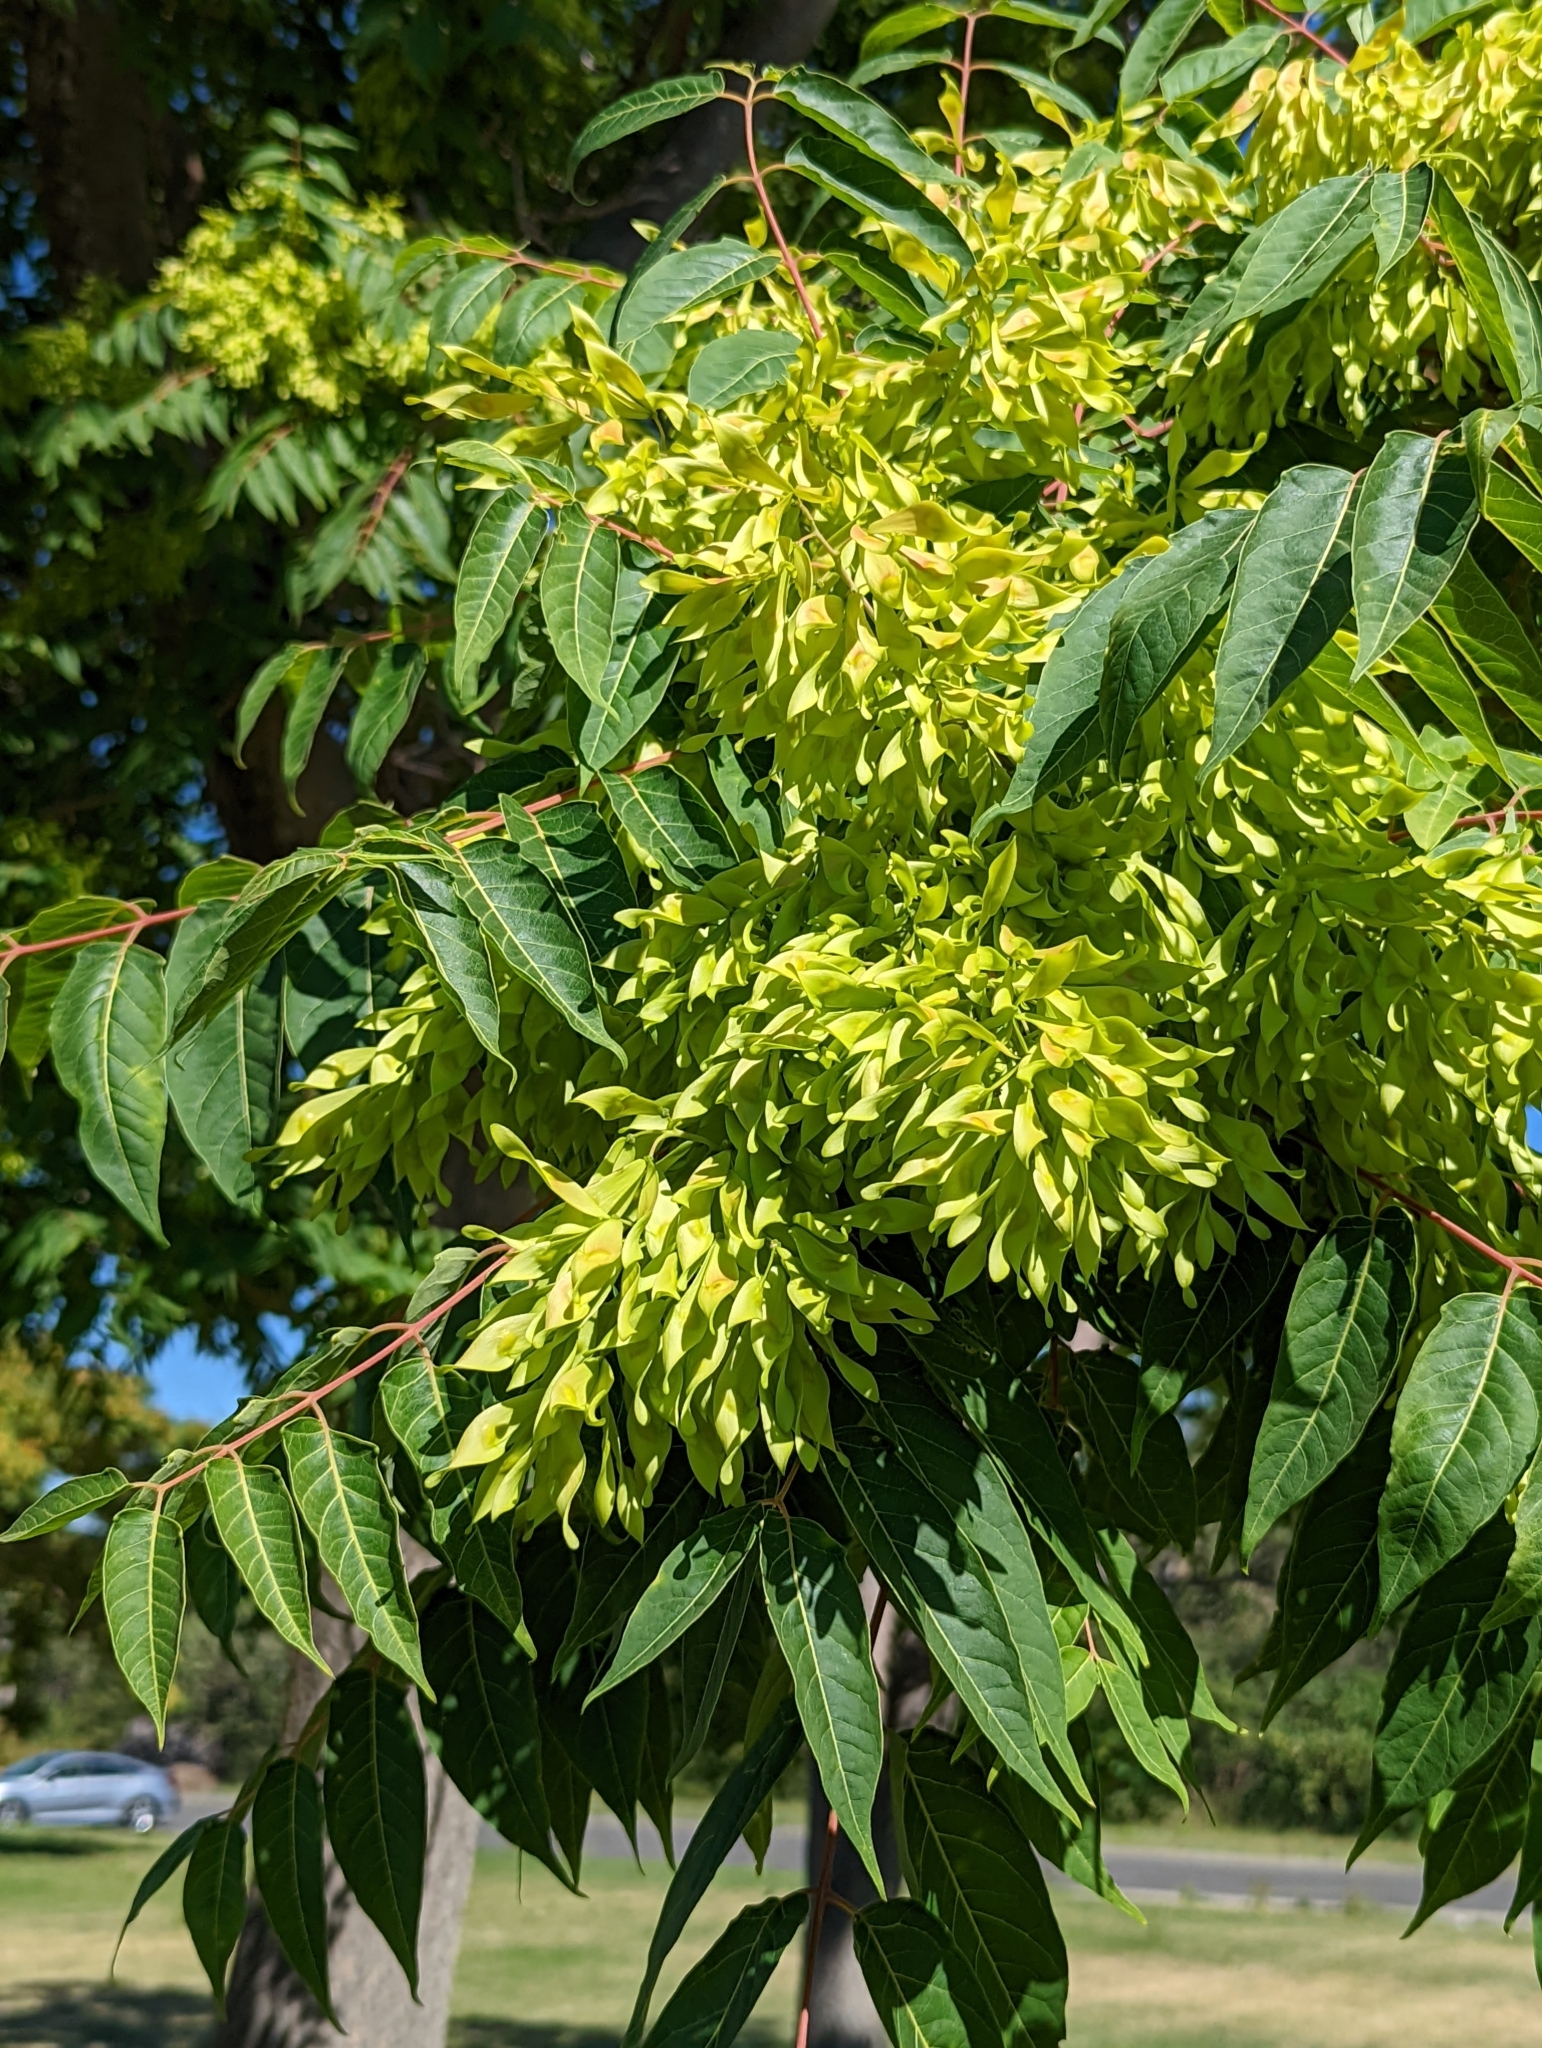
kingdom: Plantae
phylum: Tracheophyta
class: Magnoliopsida
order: Sapindales
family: Simaroubaceae
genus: Ailanthus
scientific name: Ailanthus altissima
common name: Tree-of-heaven
